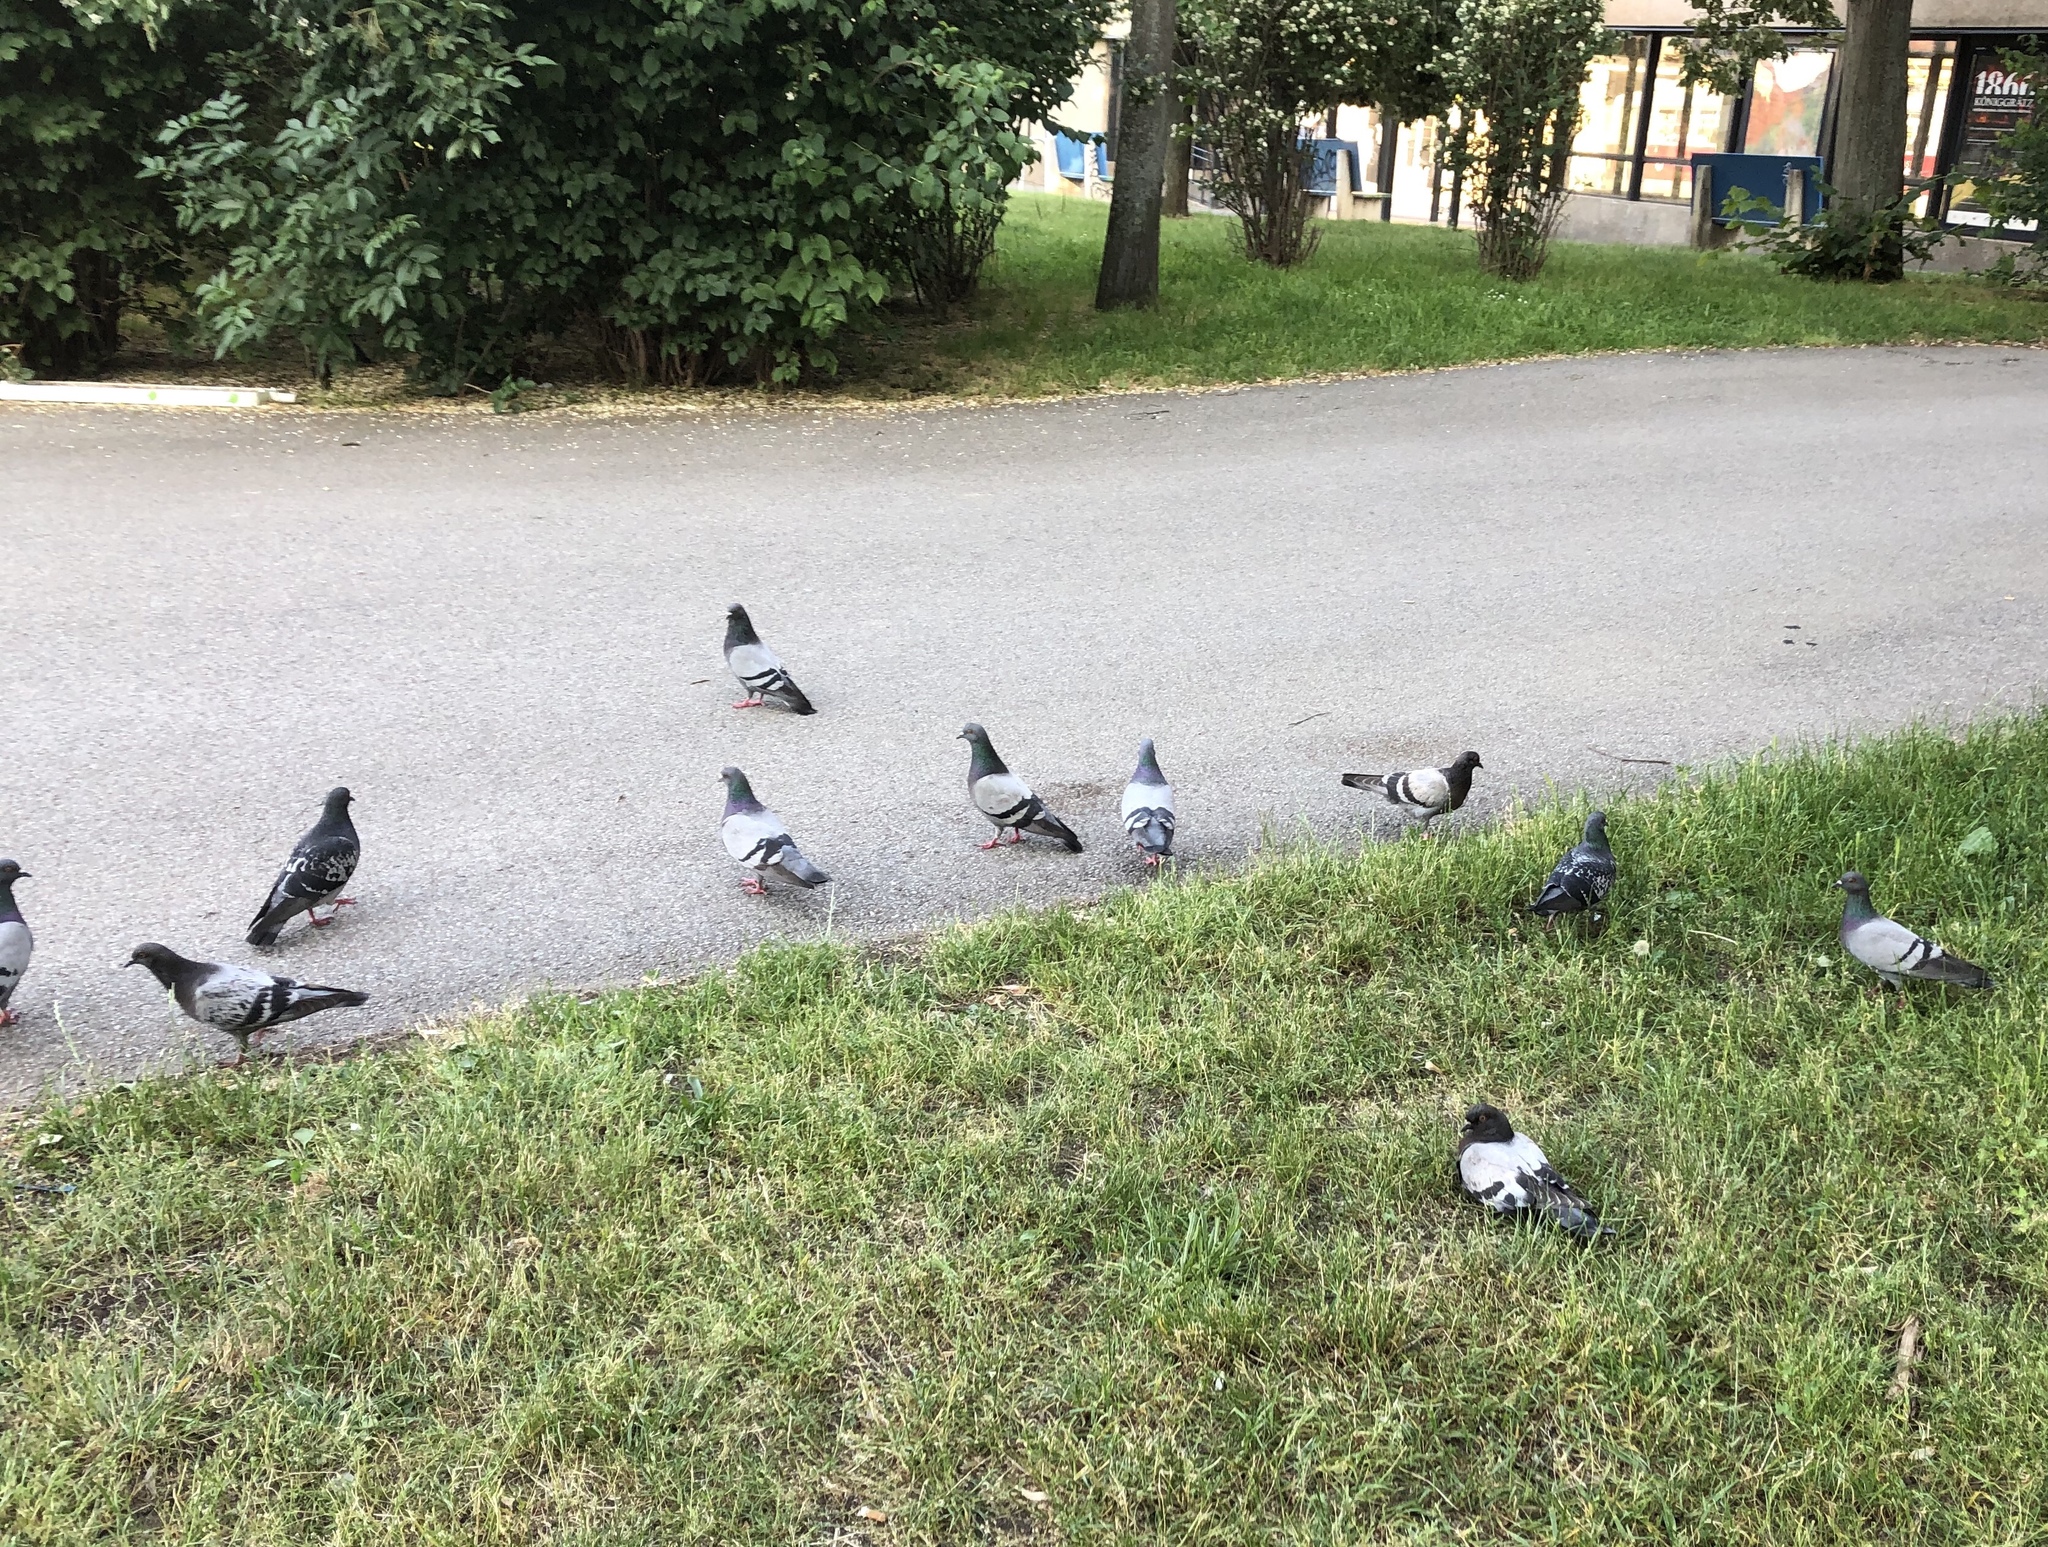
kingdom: Animalia
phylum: Chordata
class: Aves
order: Columbiformes
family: Columbidae
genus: Columba
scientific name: Columba livia
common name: Rock pigeon
